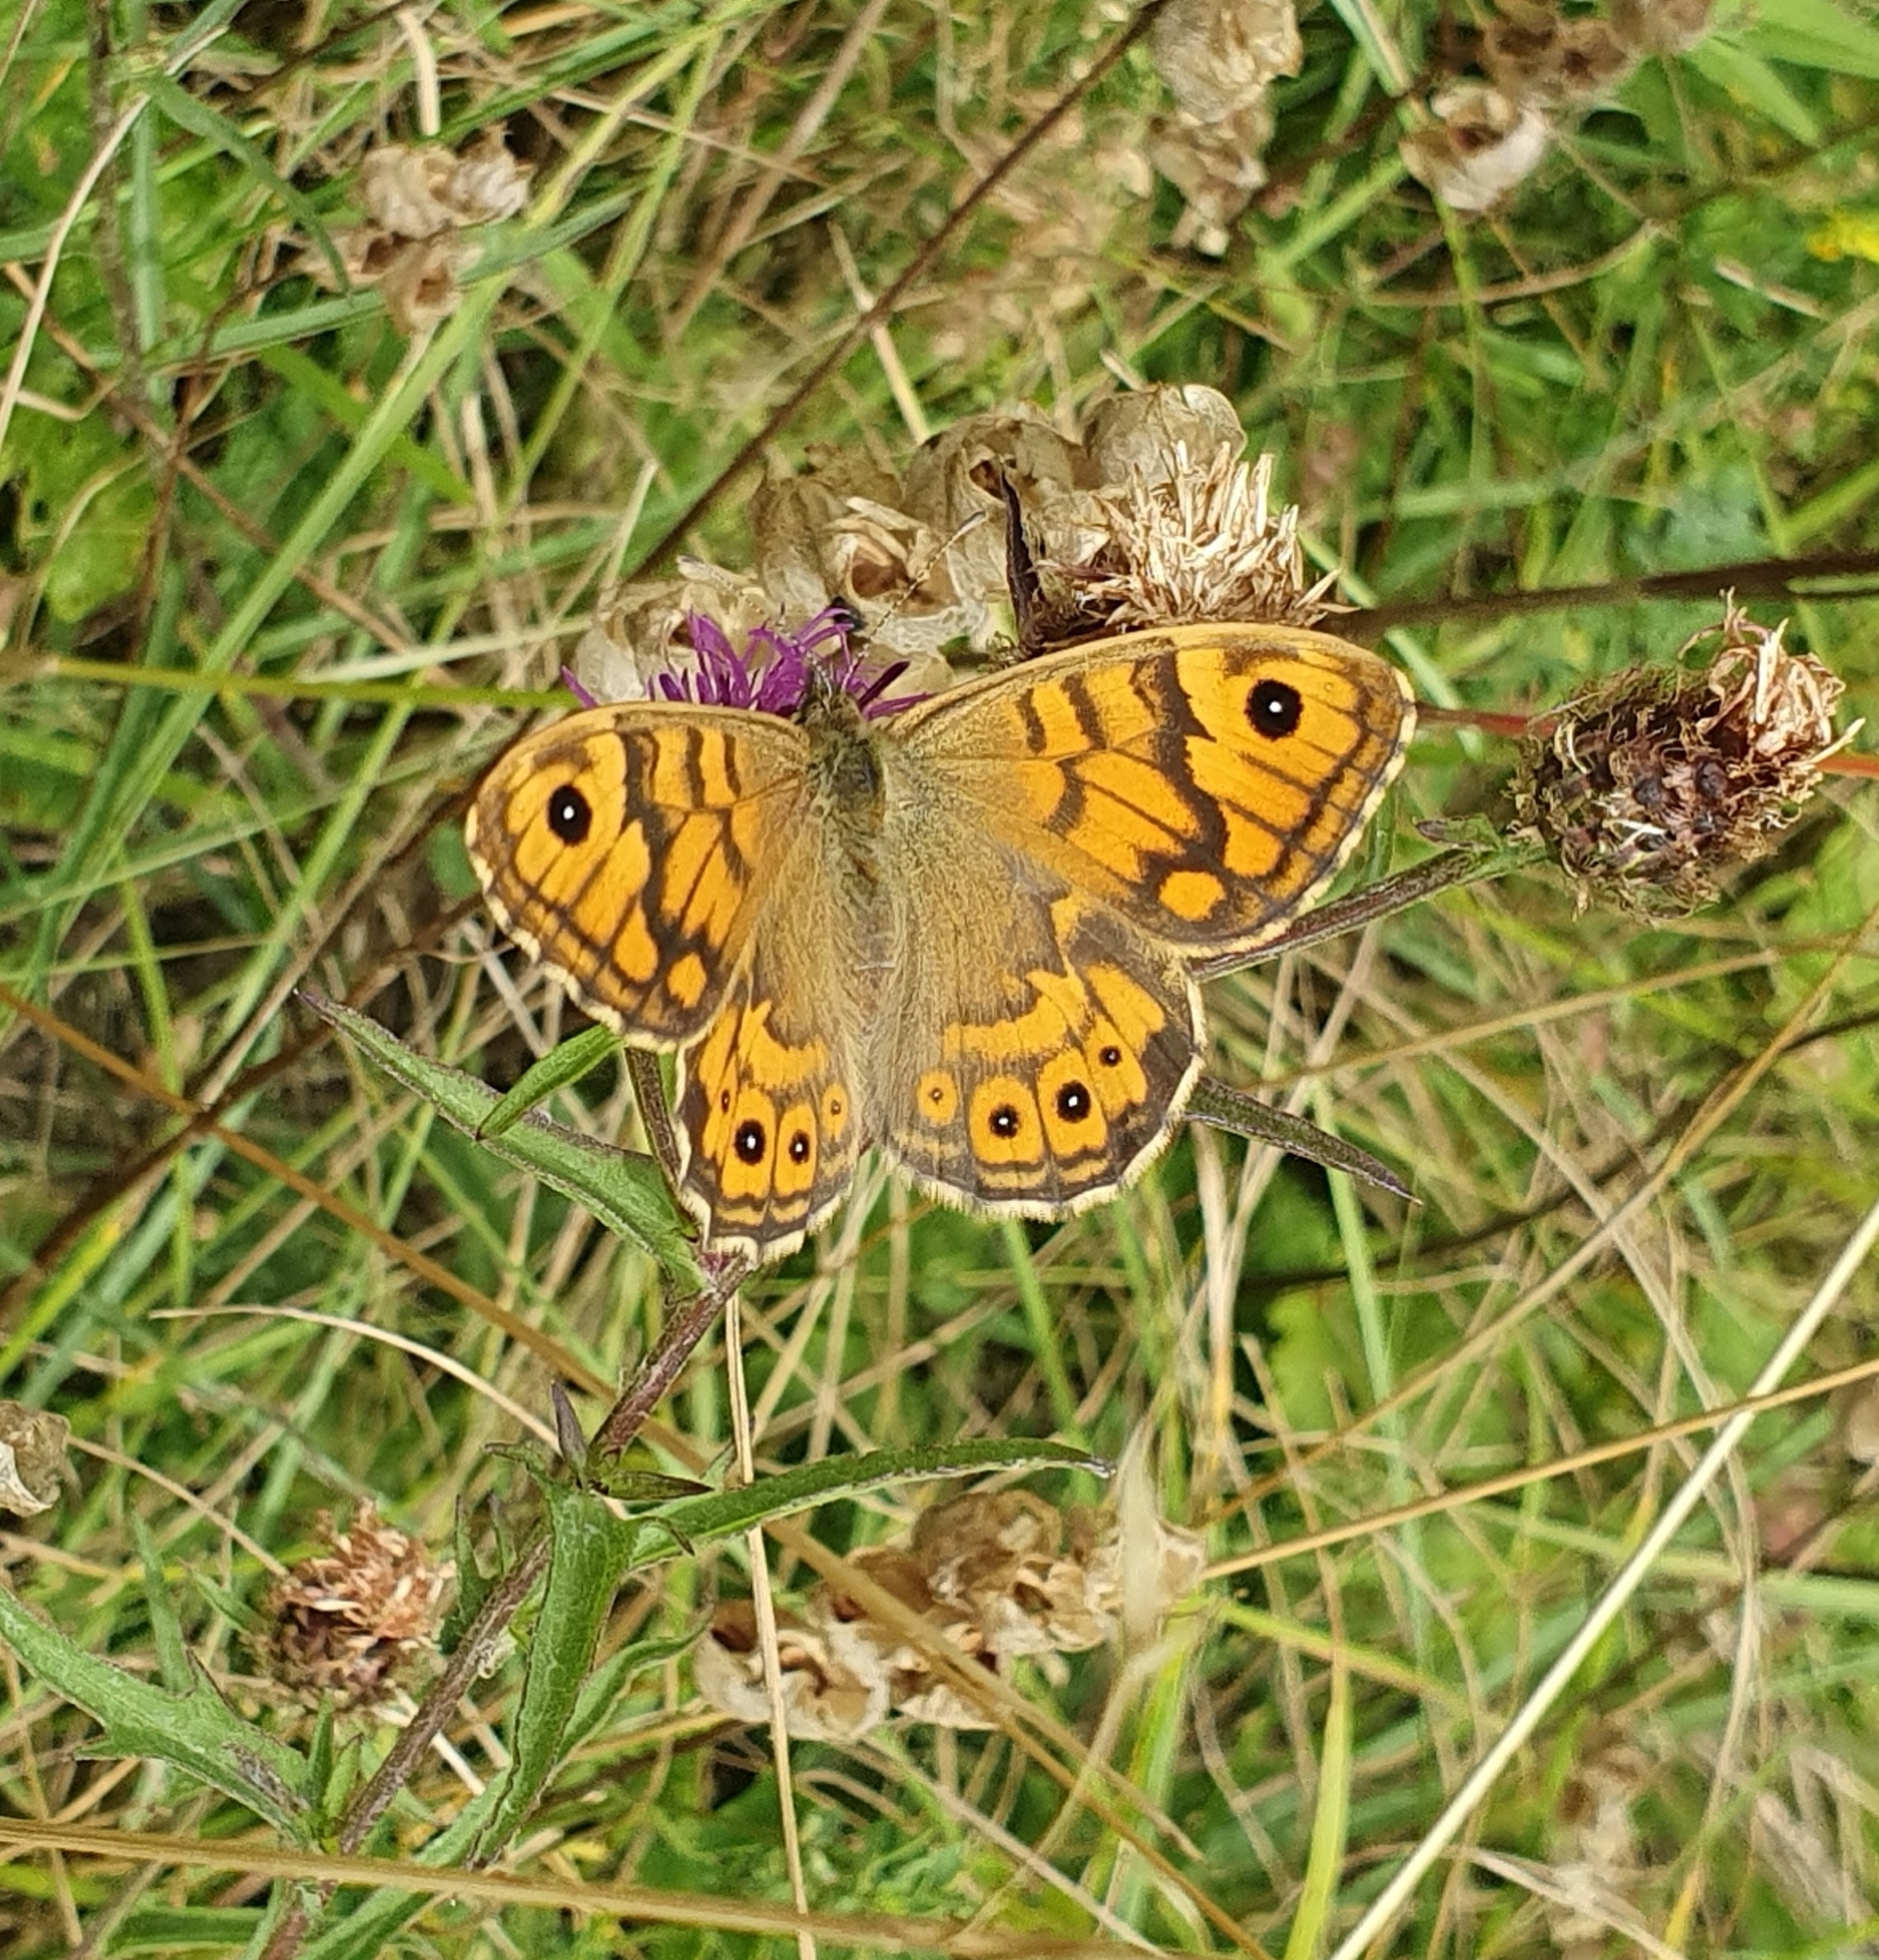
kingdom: Animalia
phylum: Arthropoda
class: Insecta
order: Lepidoptera
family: Nymphalidae
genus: Pararge
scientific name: Pararge Lasiommata megera
